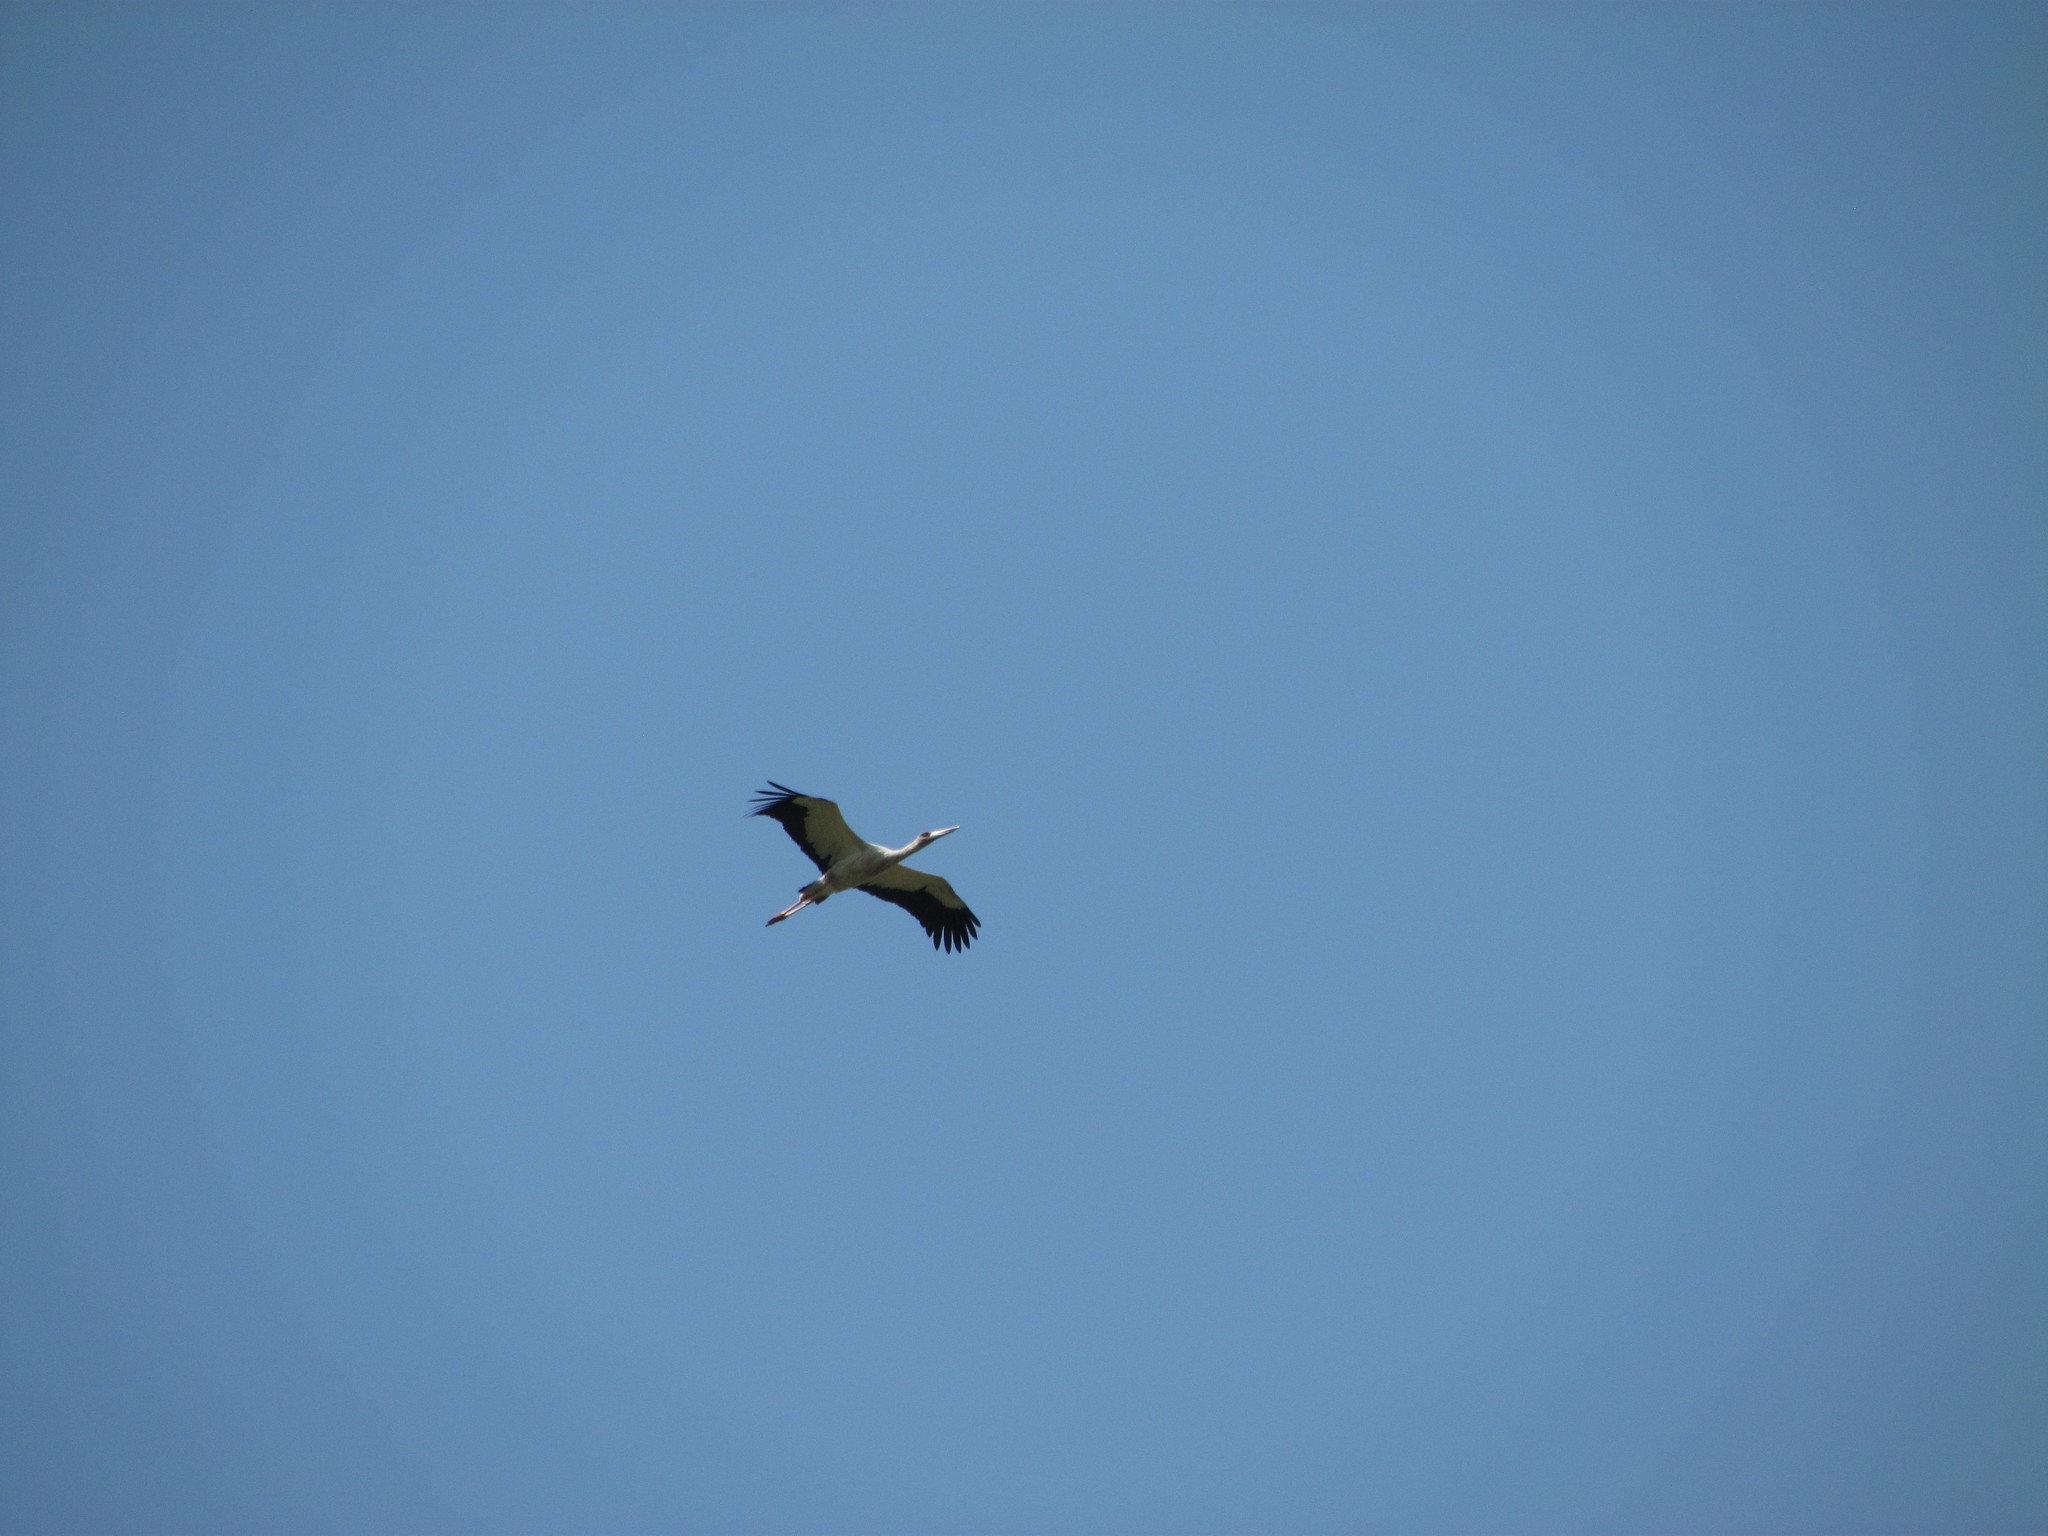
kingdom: Animalia
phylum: Chordata
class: Aves
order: Ciconiiformes
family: Ciconiidae
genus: Ciconia
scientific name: Ciconia maguari
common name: Maguari stork
